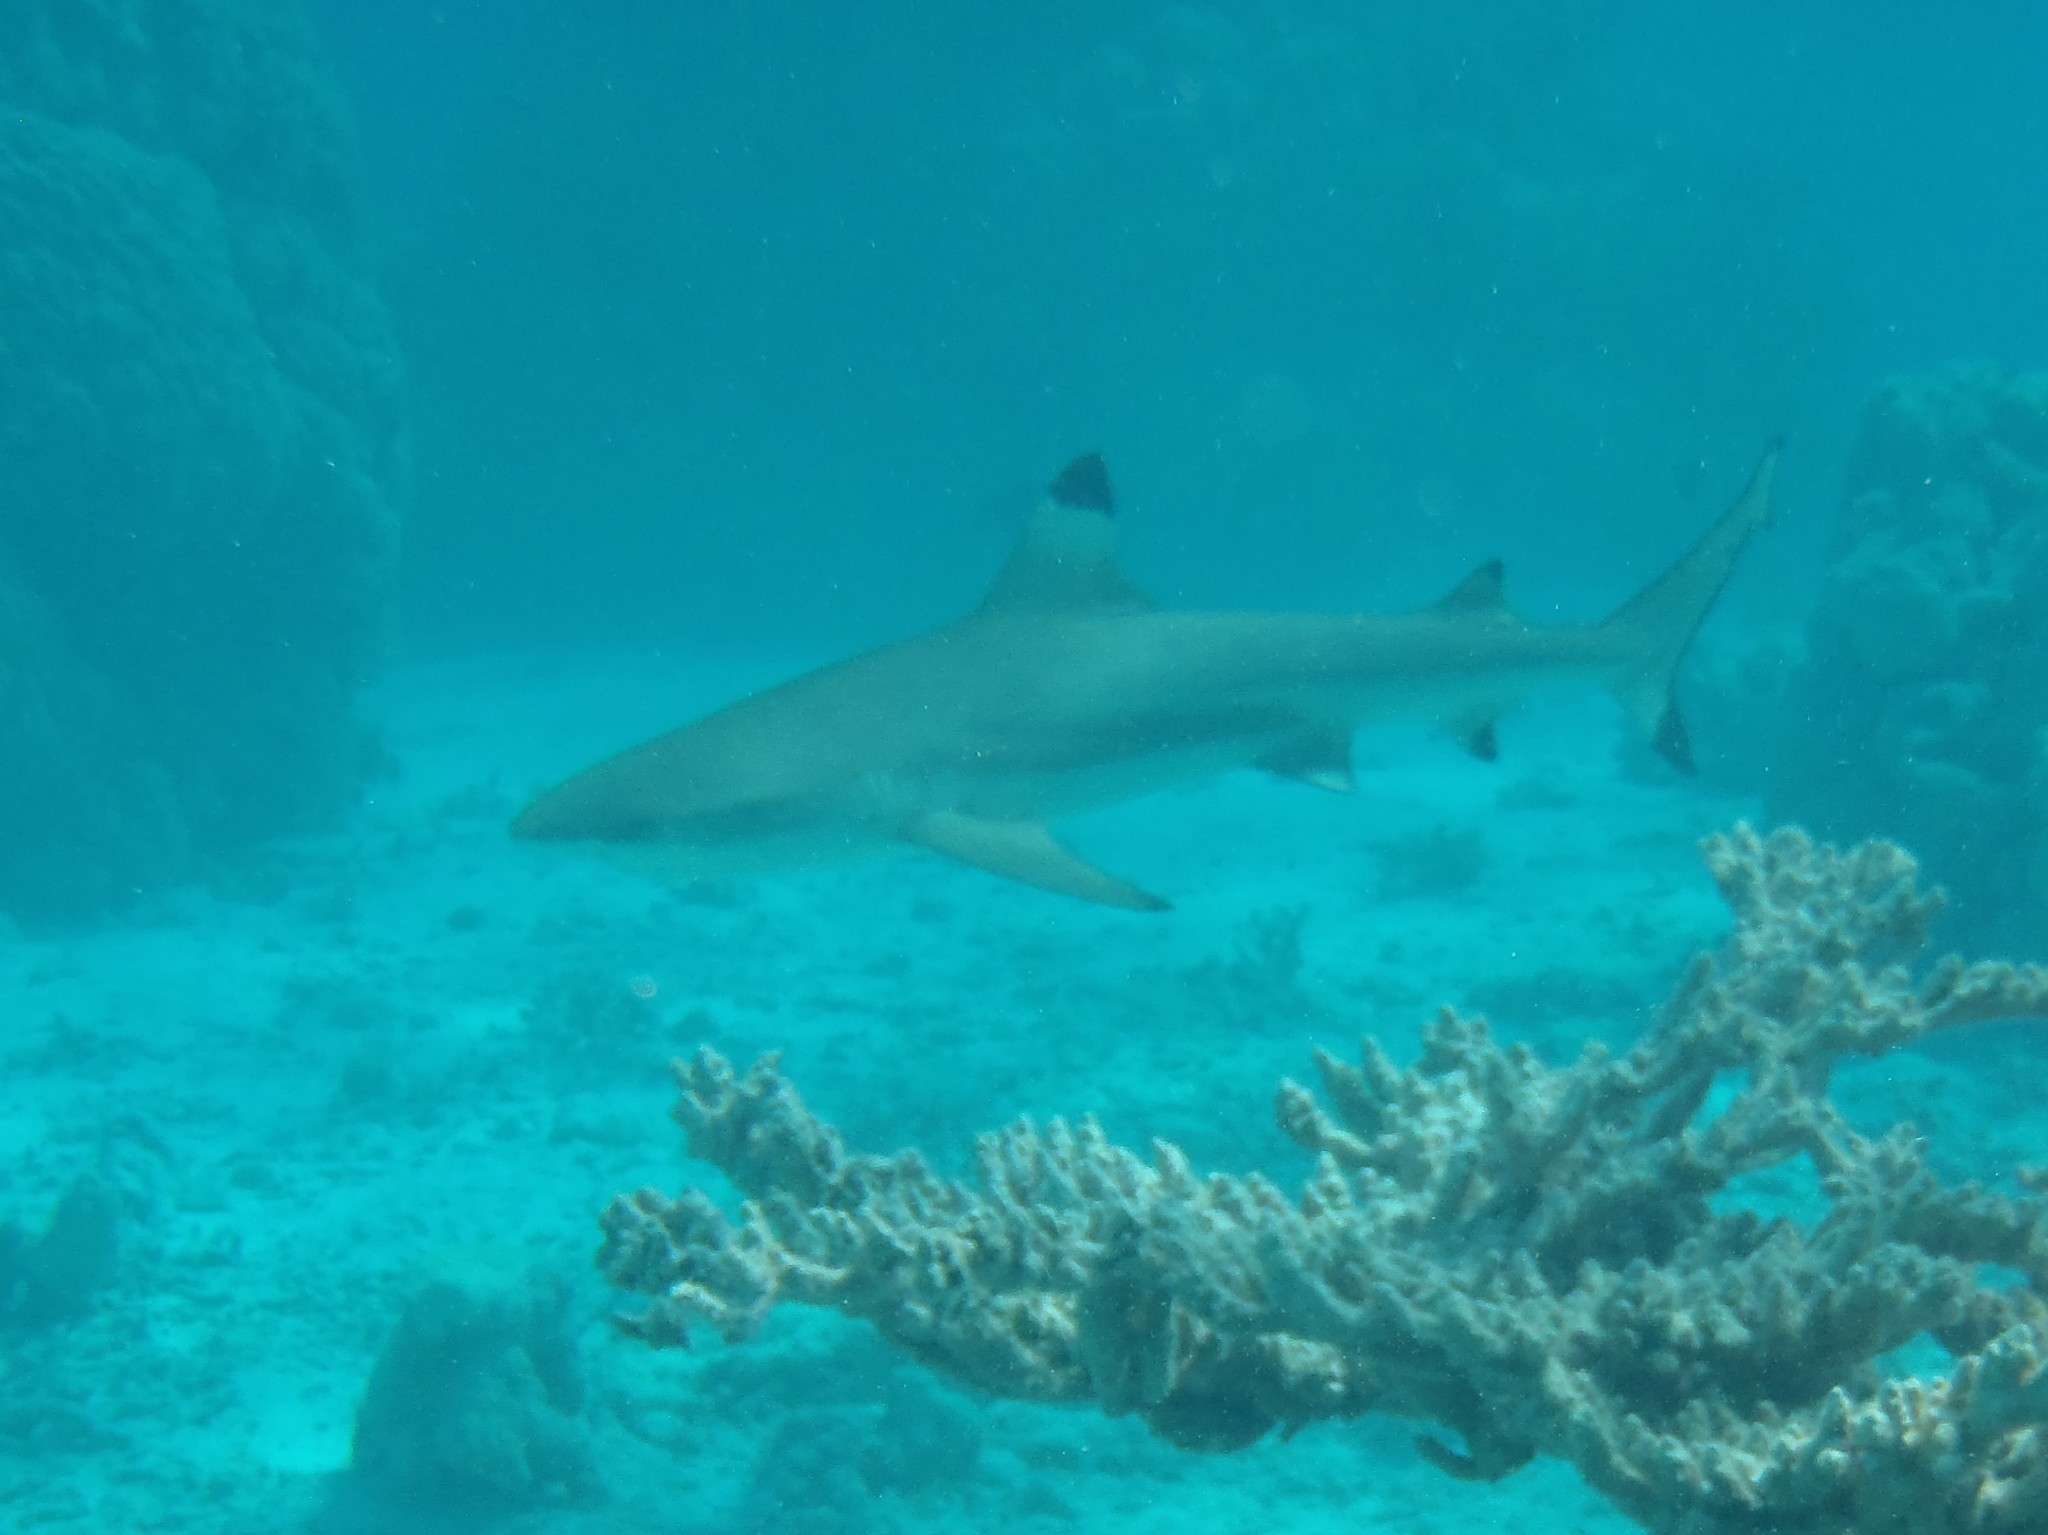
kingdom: Animalia
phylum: Chordata
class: Elasmobranchii
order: Carcharhiniformes
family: Carcharhinidae
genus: Carcharhinus
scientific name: Carcharhinus melanopterus
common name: Blacktip reef shark
